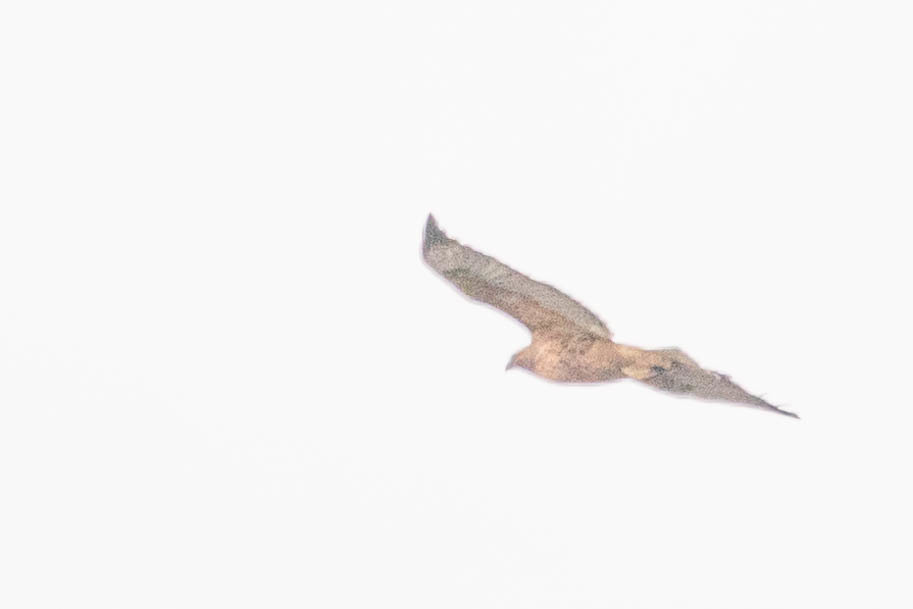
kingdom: Animalia
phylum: Chordata
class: Aves
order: Accipitriformes
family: Accipitridae
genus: Buteo
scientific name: Buteo jamaicensis
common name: Red-tailed hawk
